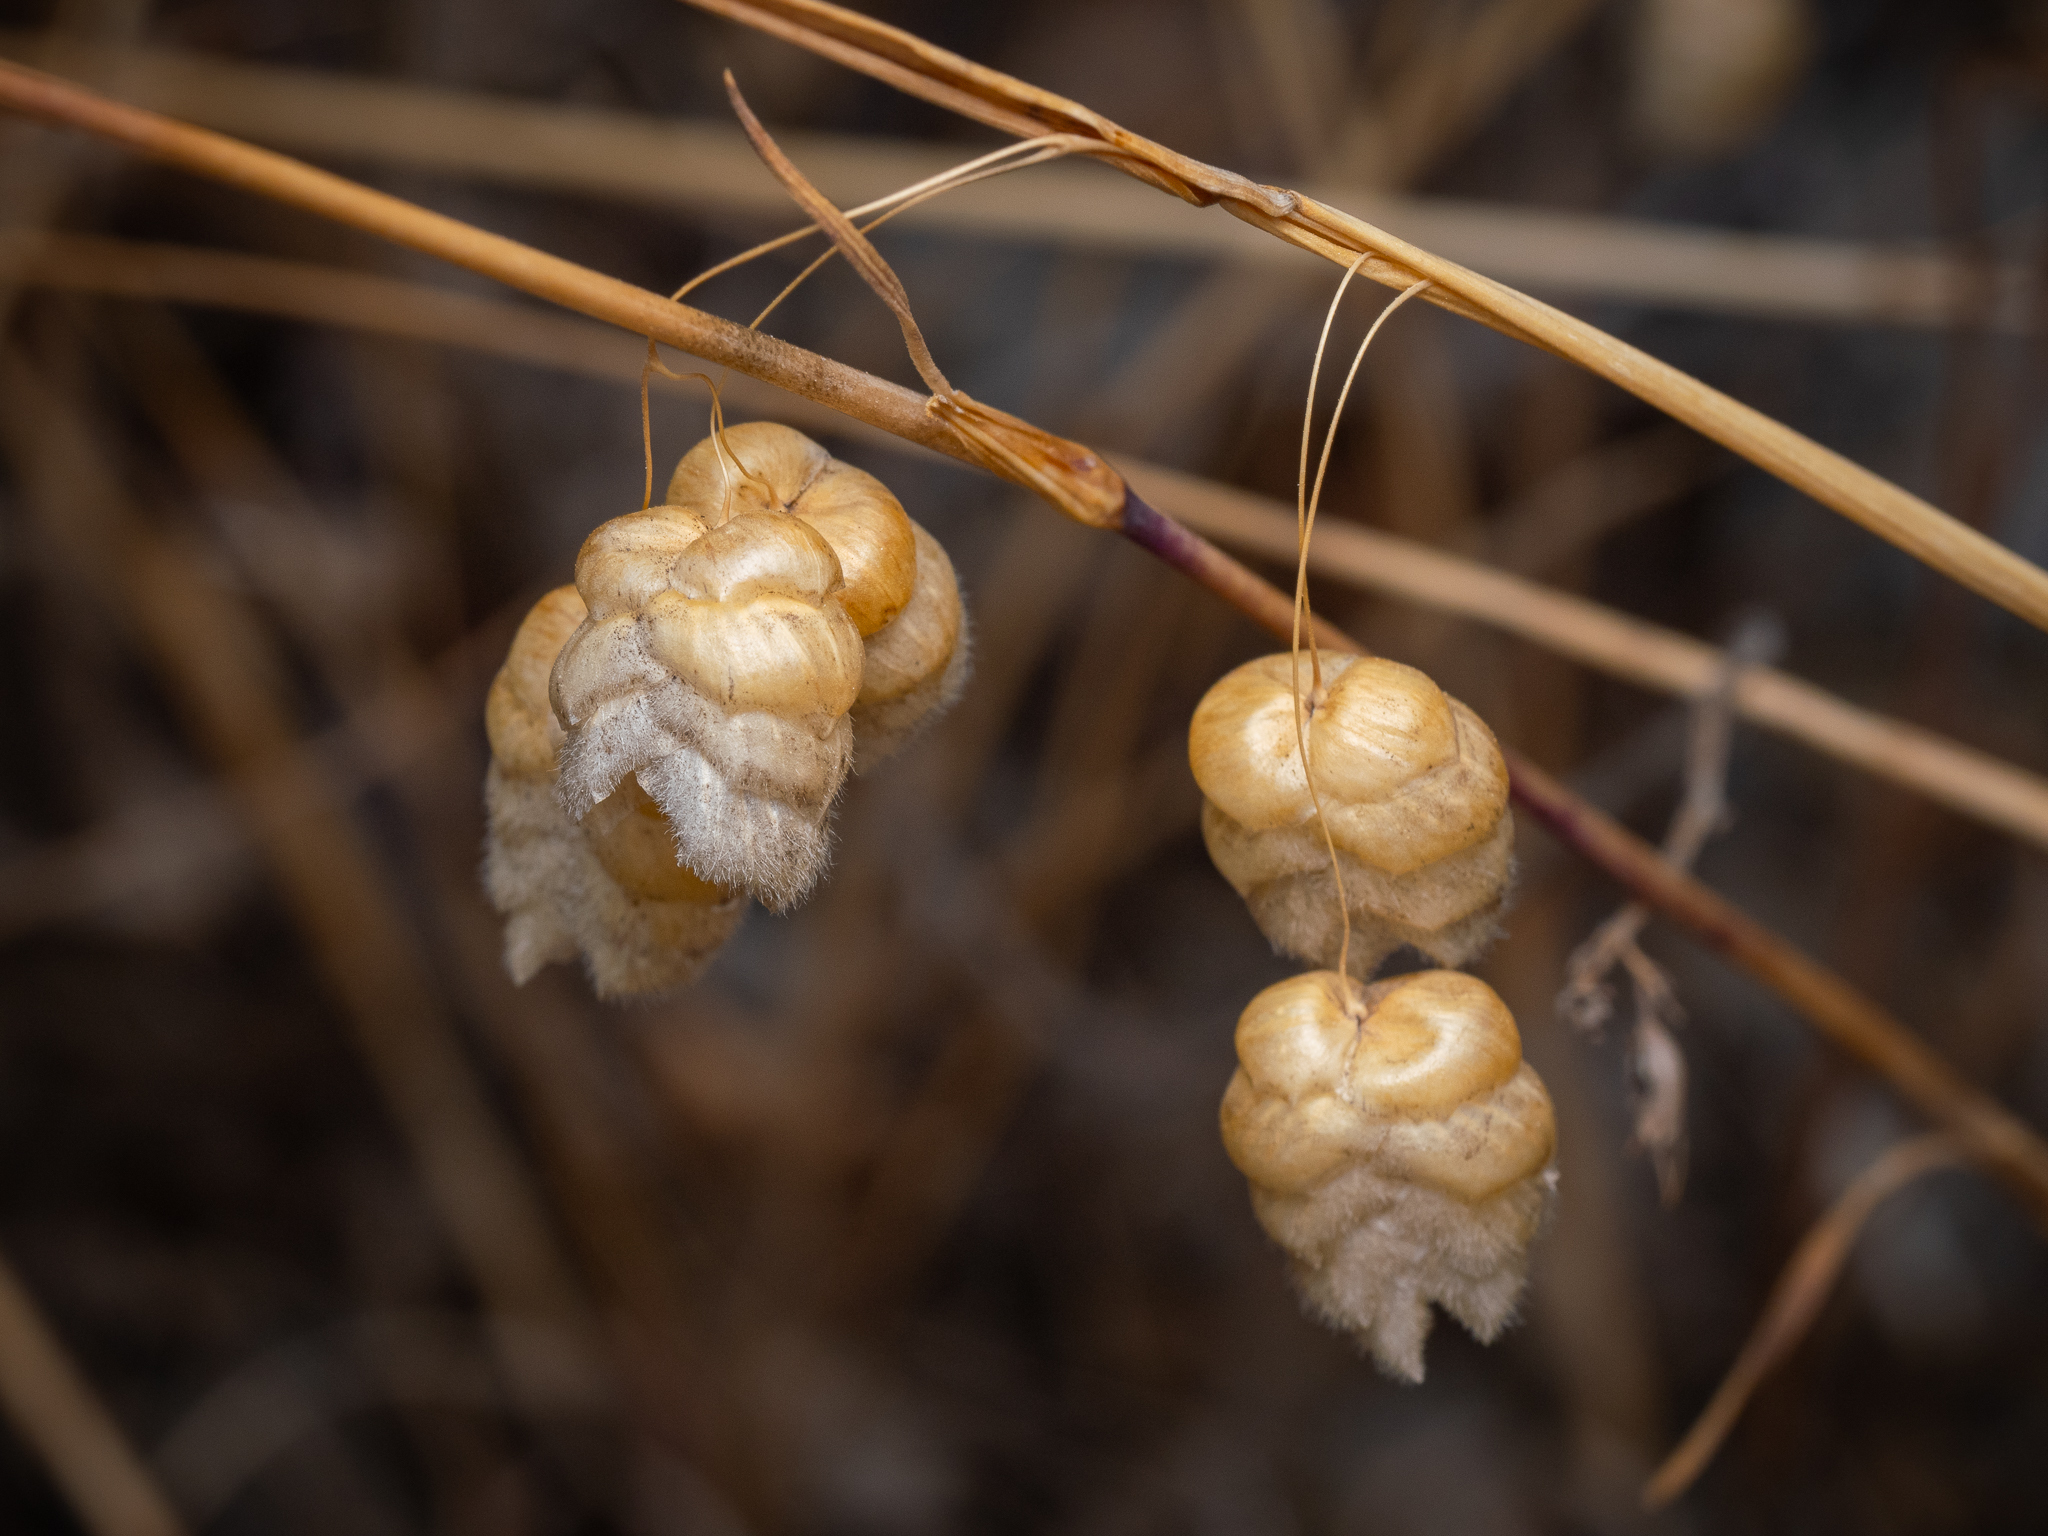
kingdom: Plantae
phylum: Tracheophyta
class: Liliopsida
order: Poales
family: Poaceae
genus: Briza
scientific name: Briza maxima
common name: Big quakinggrass
